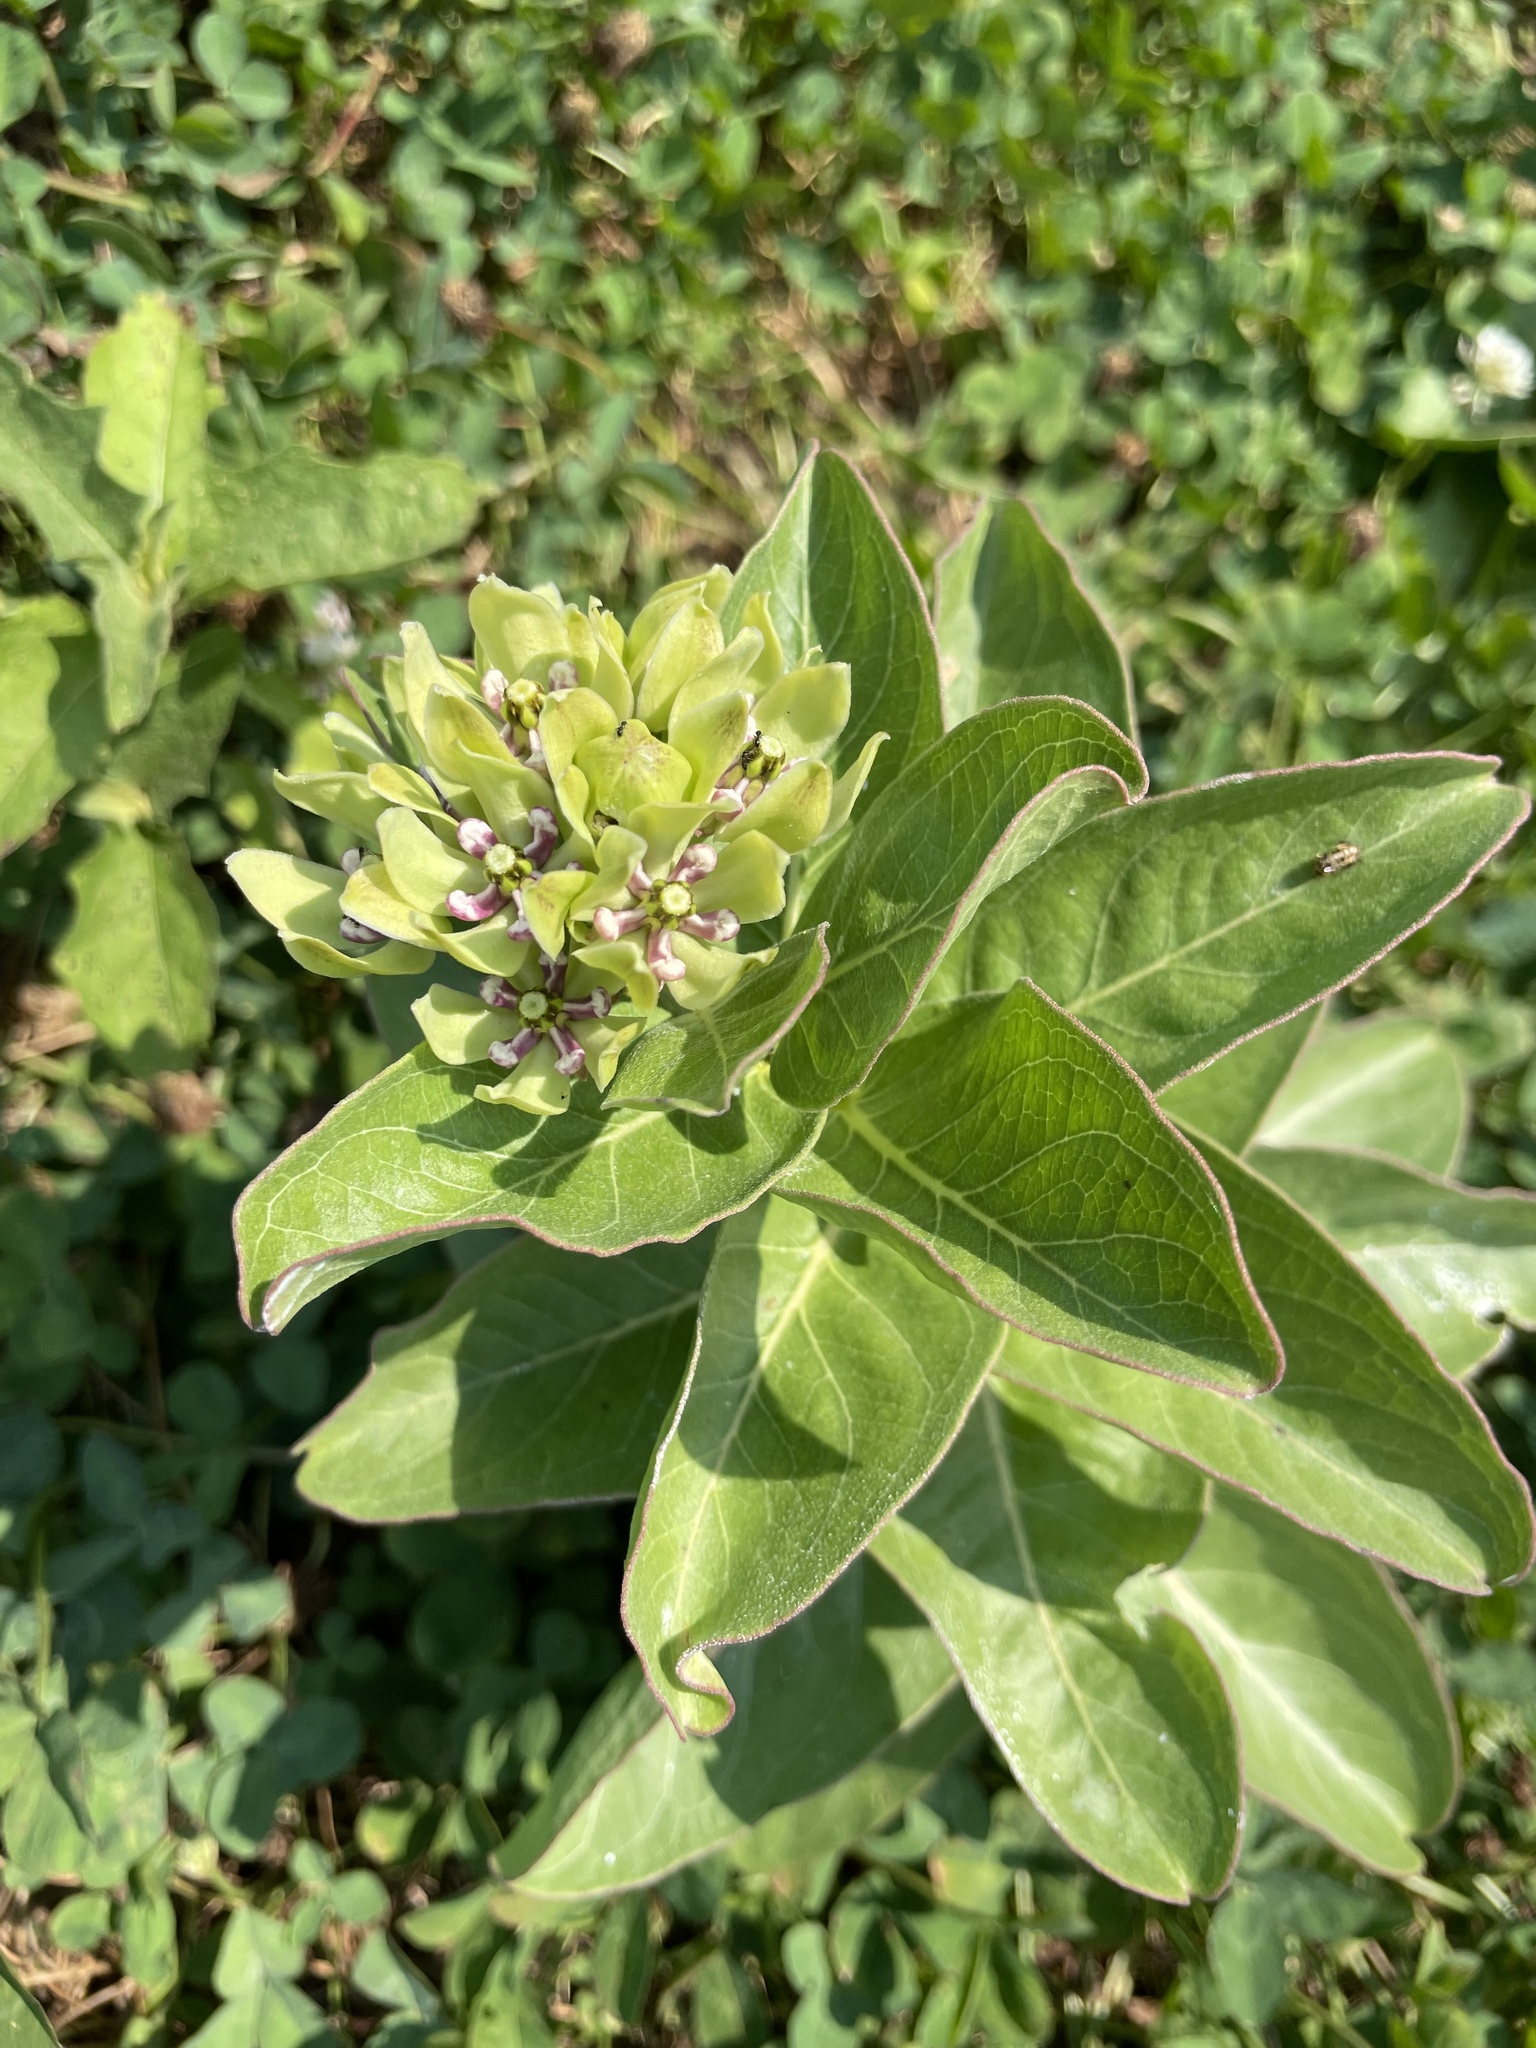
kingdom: Plantae
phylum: Tracheophyta
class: Magnoliopsida
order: Gentianales
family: Apocynaceae
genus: Asclepias
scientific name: Asclepias viridis
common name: Antelope-horns
